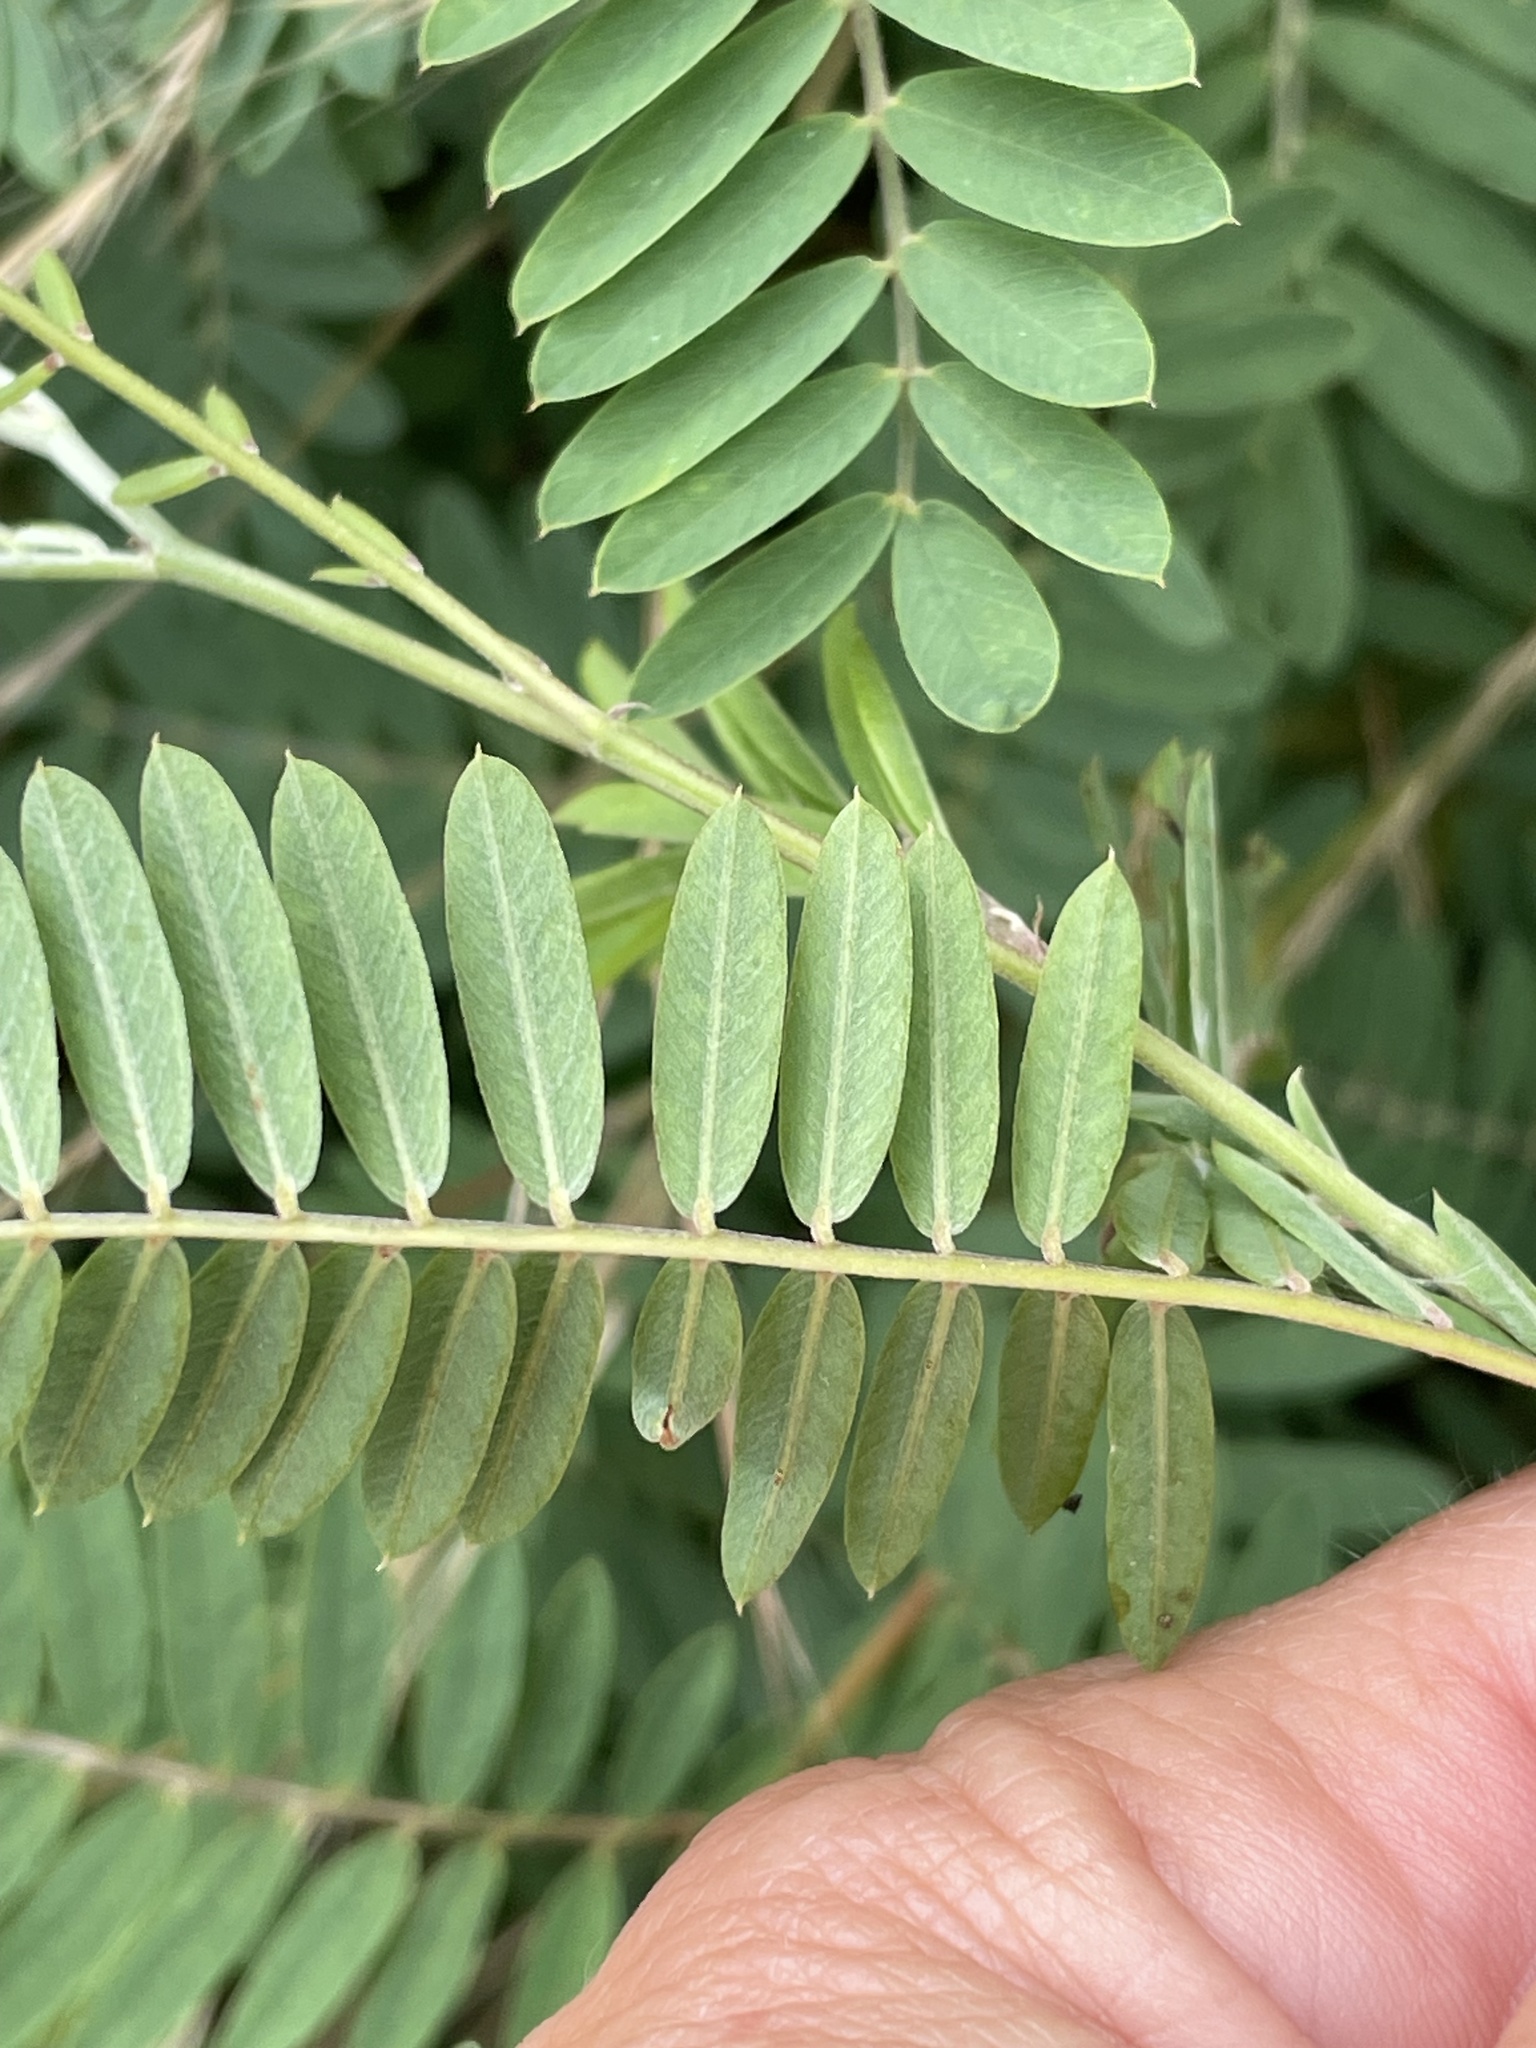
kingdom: Plantae
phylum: Tracheophyta
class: Magnoliopsida
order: Fabales
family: Fabaceae
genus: Tephrosia
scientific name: Tephrosia virginiana
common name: Rabbit-pea
